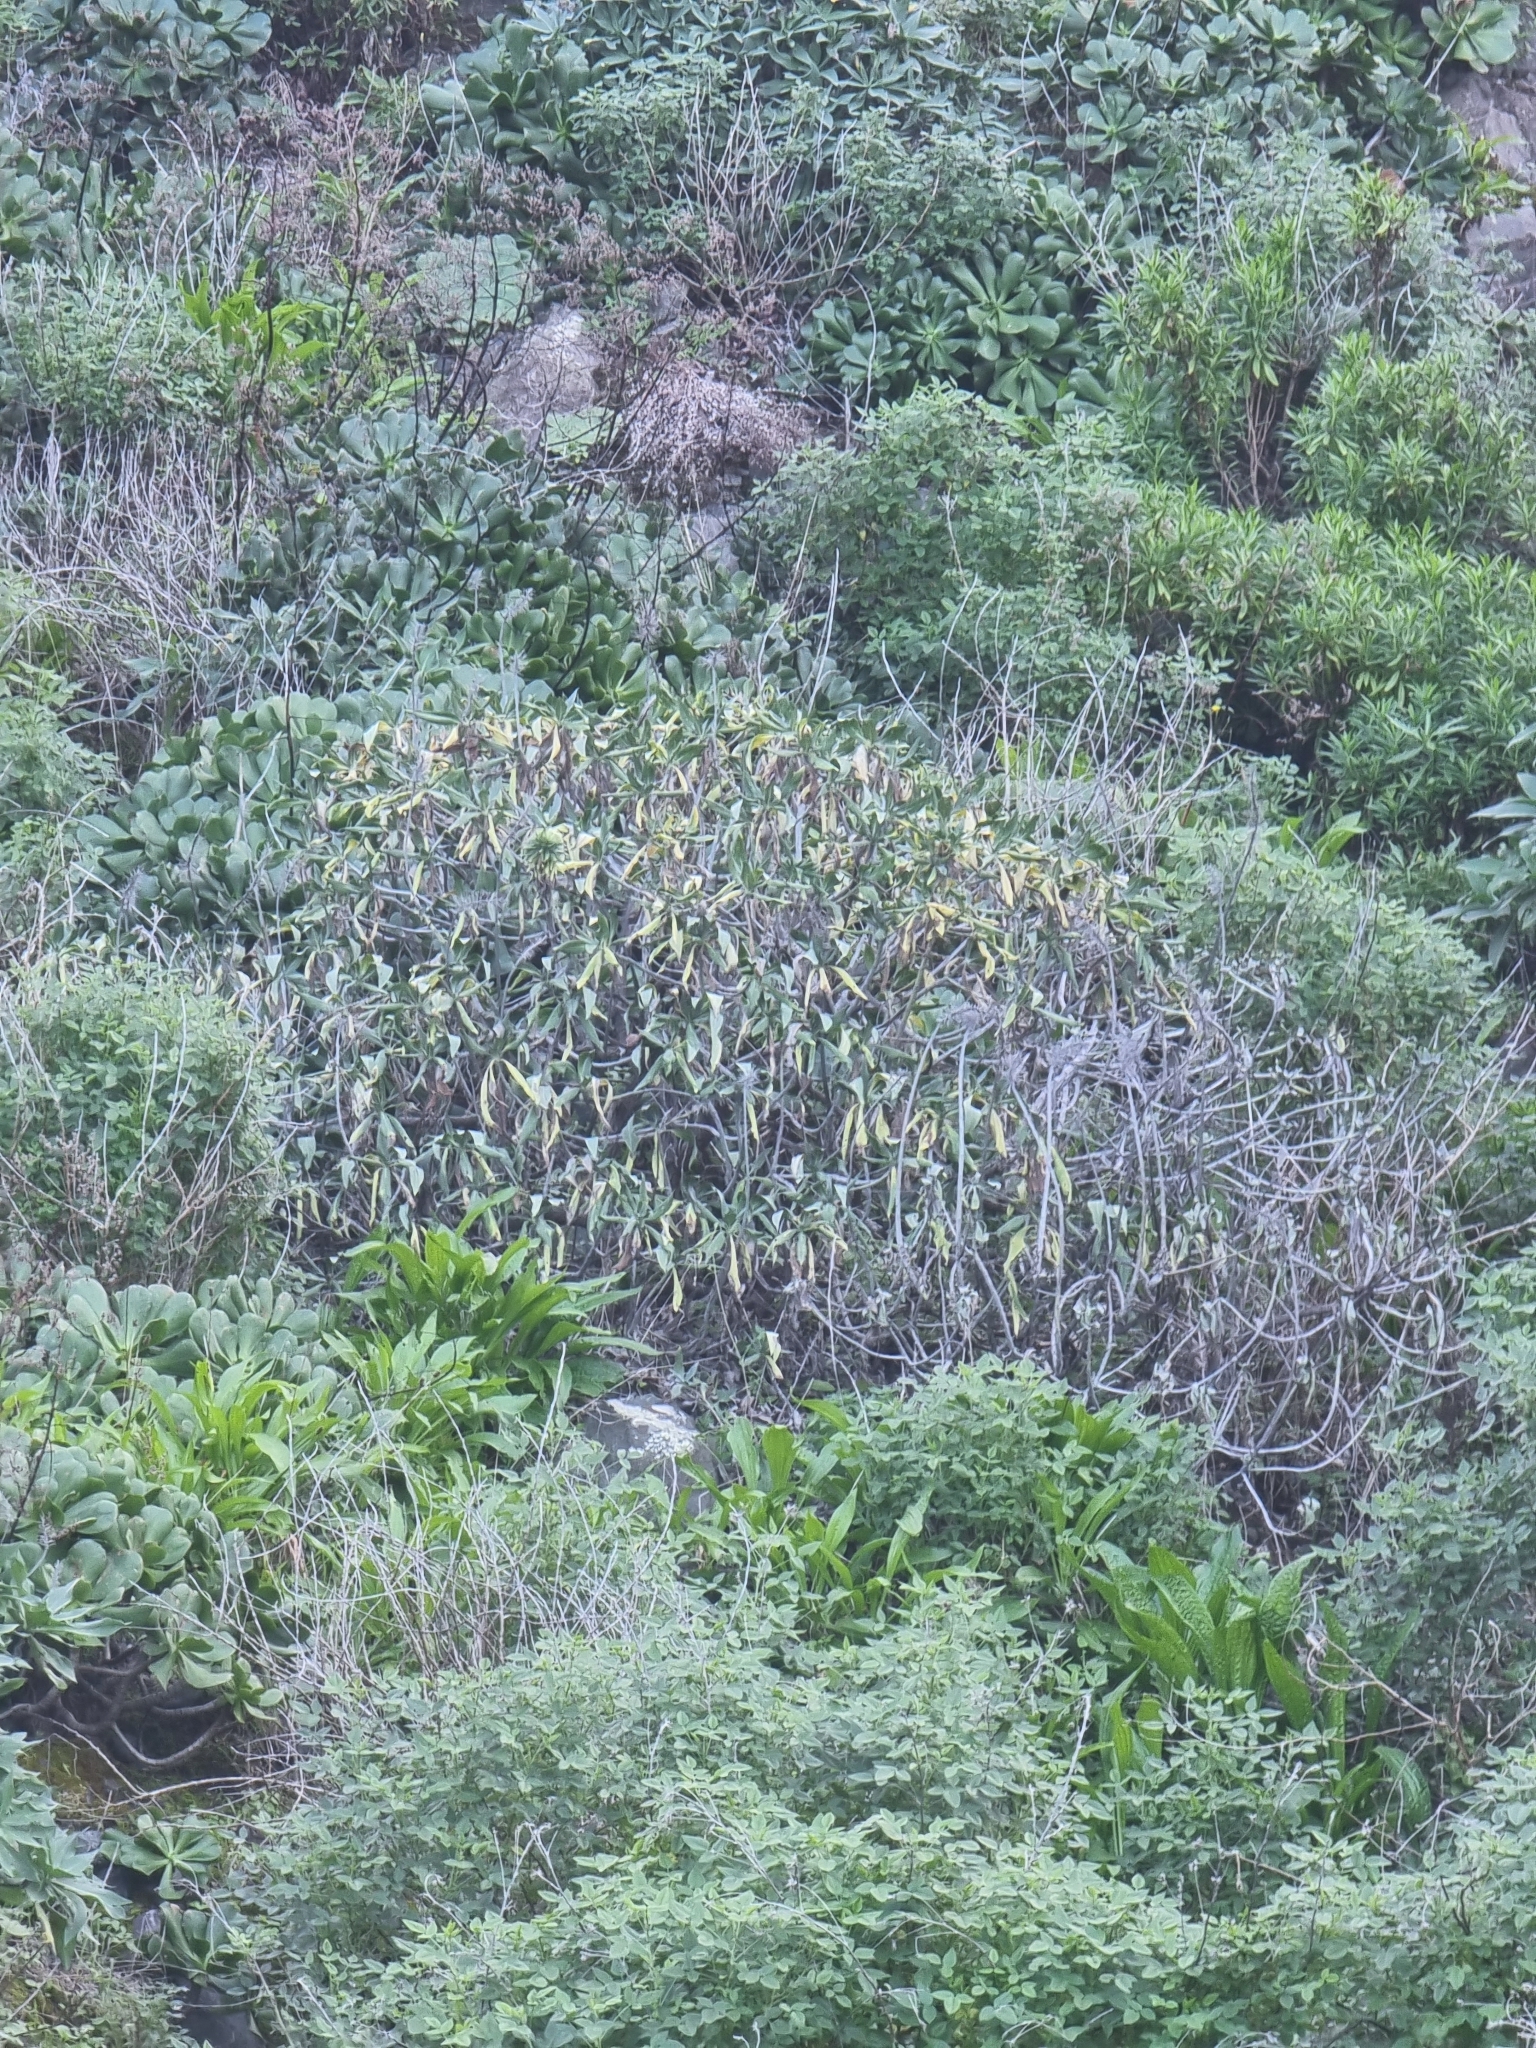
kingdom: Plantae
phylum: Tracheophyta
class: Magnoliopsida
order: Boraginales
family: Boraginaceae
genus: Echium
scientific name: Echium nervosum
